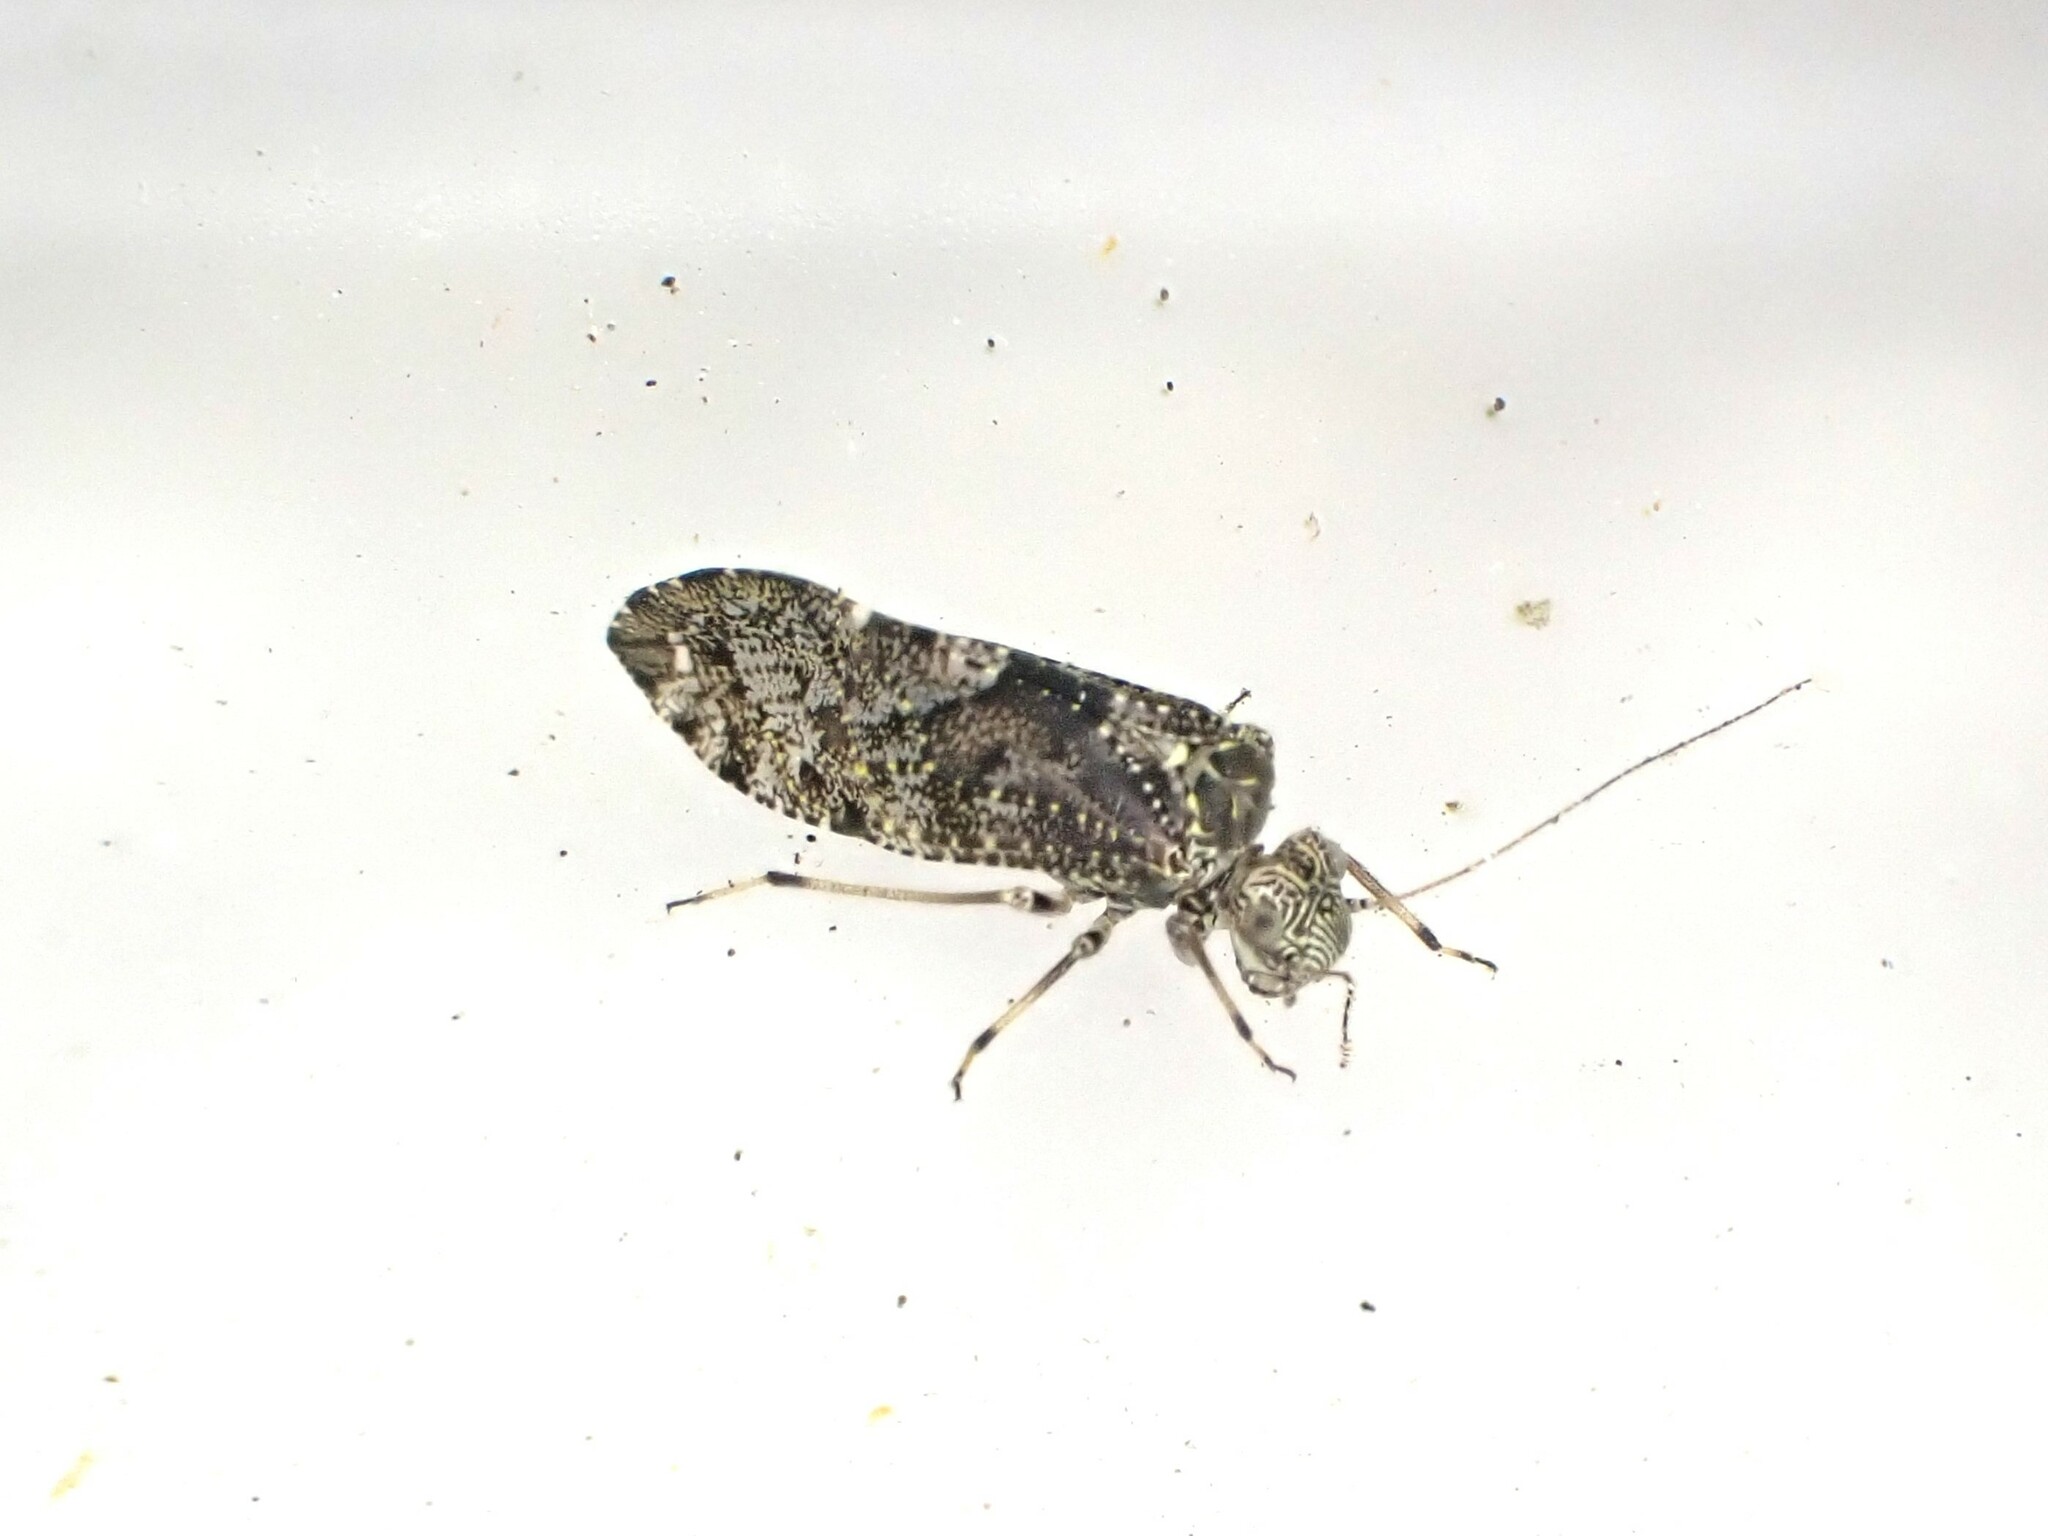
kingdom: Animalia
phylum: Arthropoda
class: Insecta
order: Psocodea
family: Myopsocidae
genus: Nimbopsocus
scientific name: Nimbopsocus australis
